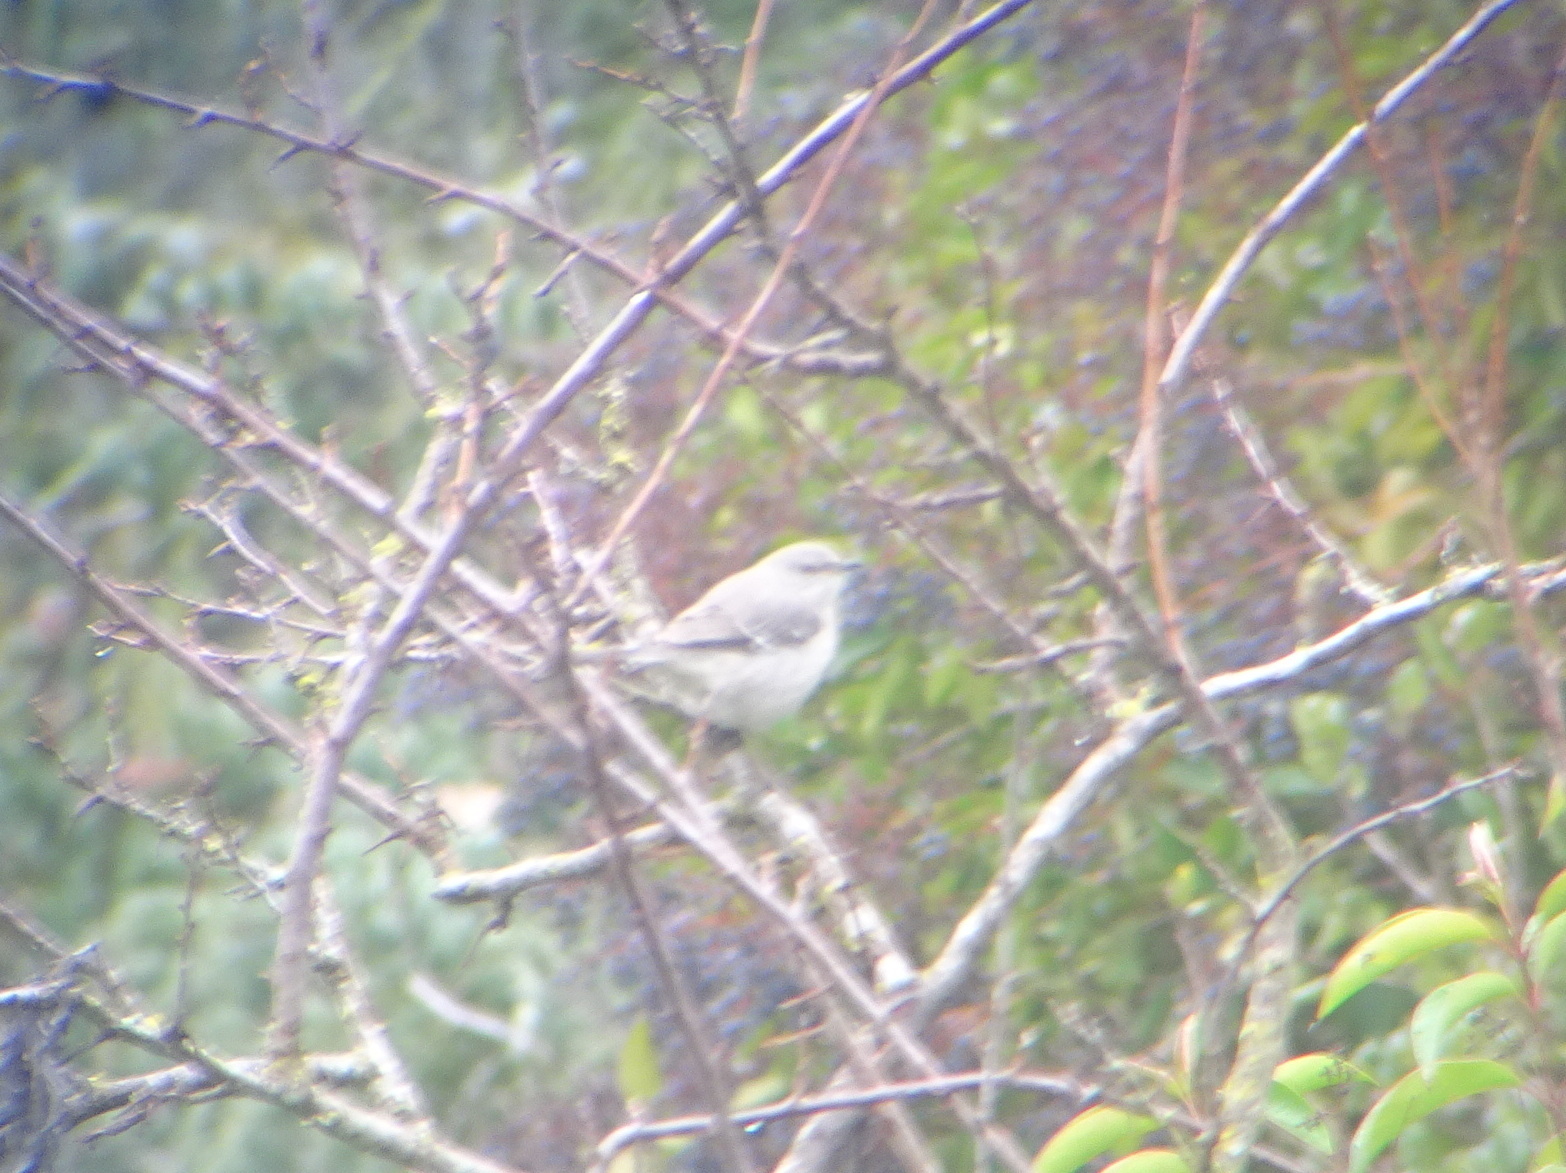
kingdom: Animalia
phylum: Chordata
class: Aves
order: Passeriformes
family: Mimidae
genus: Mimus
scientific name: Mimus polyglottos
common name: Northern mockingbird
